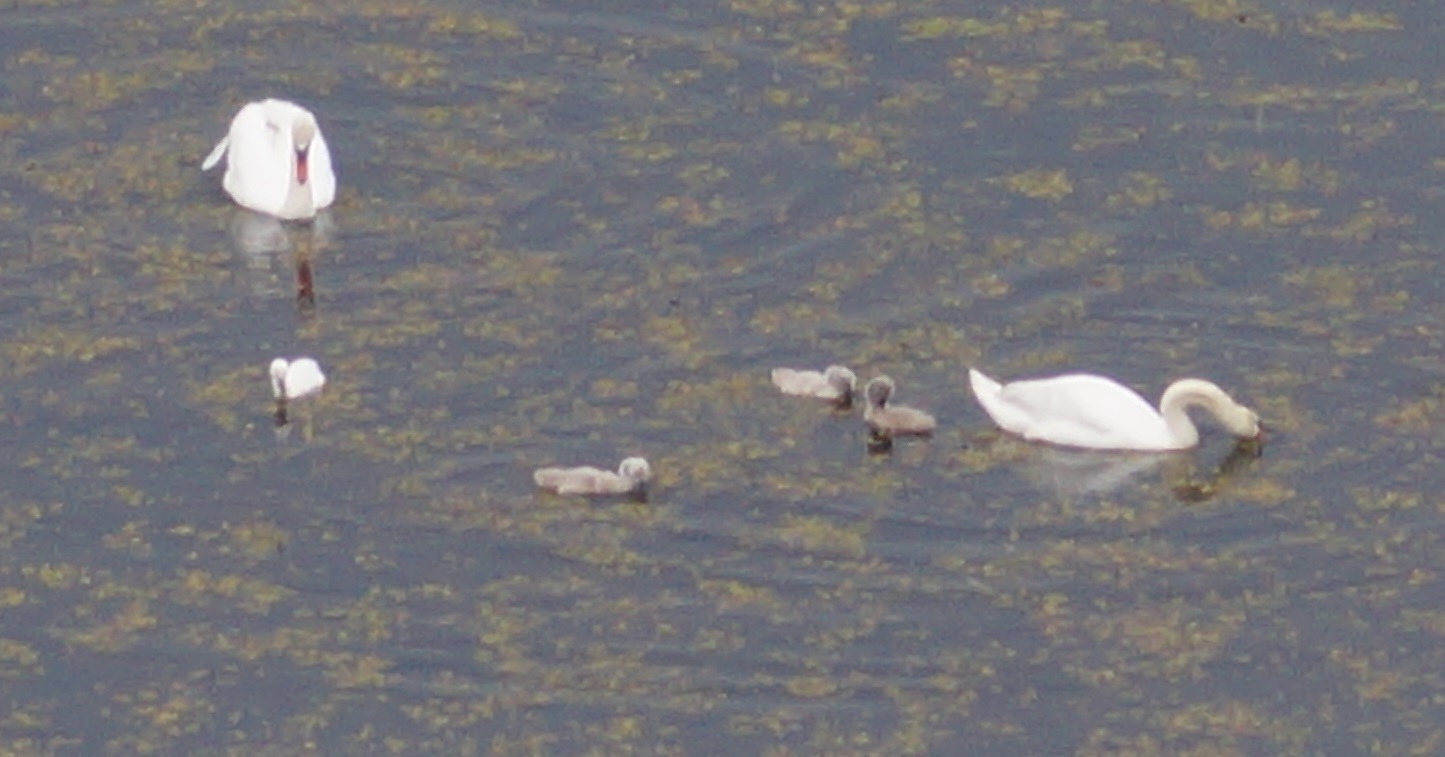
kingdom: Animalia
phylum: Chordata
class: Aves
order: Anseriformes
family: Anatidae
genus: Cygnus
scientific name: Cygnus olor
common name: Mute swan
